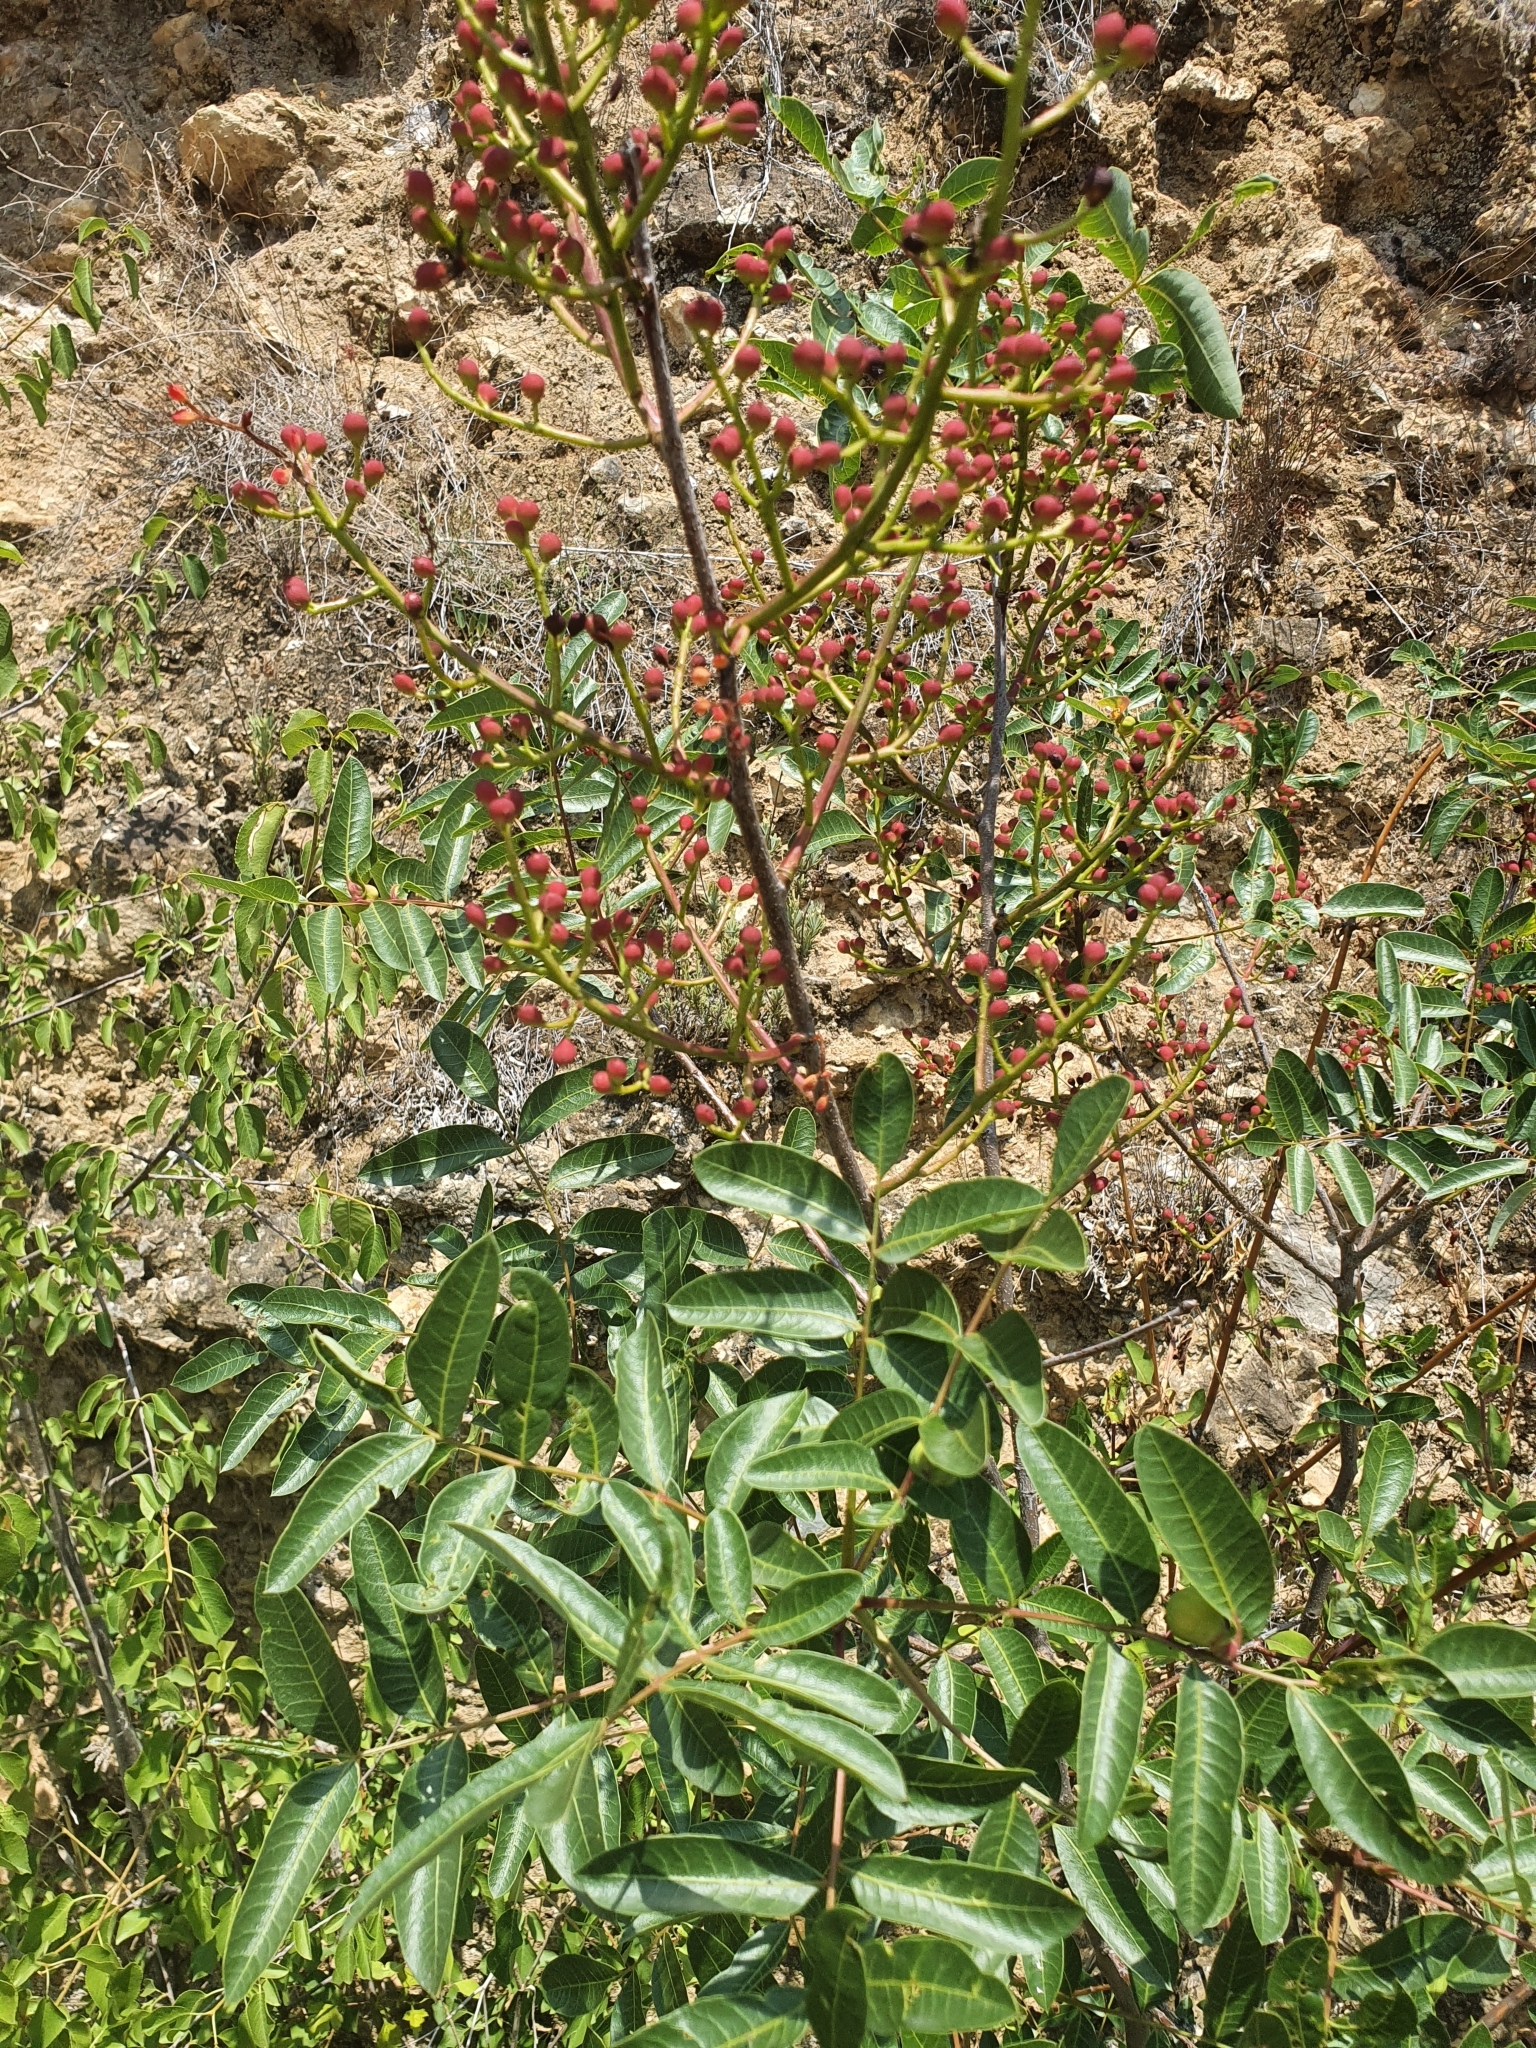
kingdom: Plantae
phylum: Tracheophyta
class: Magnoliopsida
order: Sapindales
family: Anacardiaceae
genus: Pistacia
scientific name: Pistacia terebinthus
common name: Terebinth
